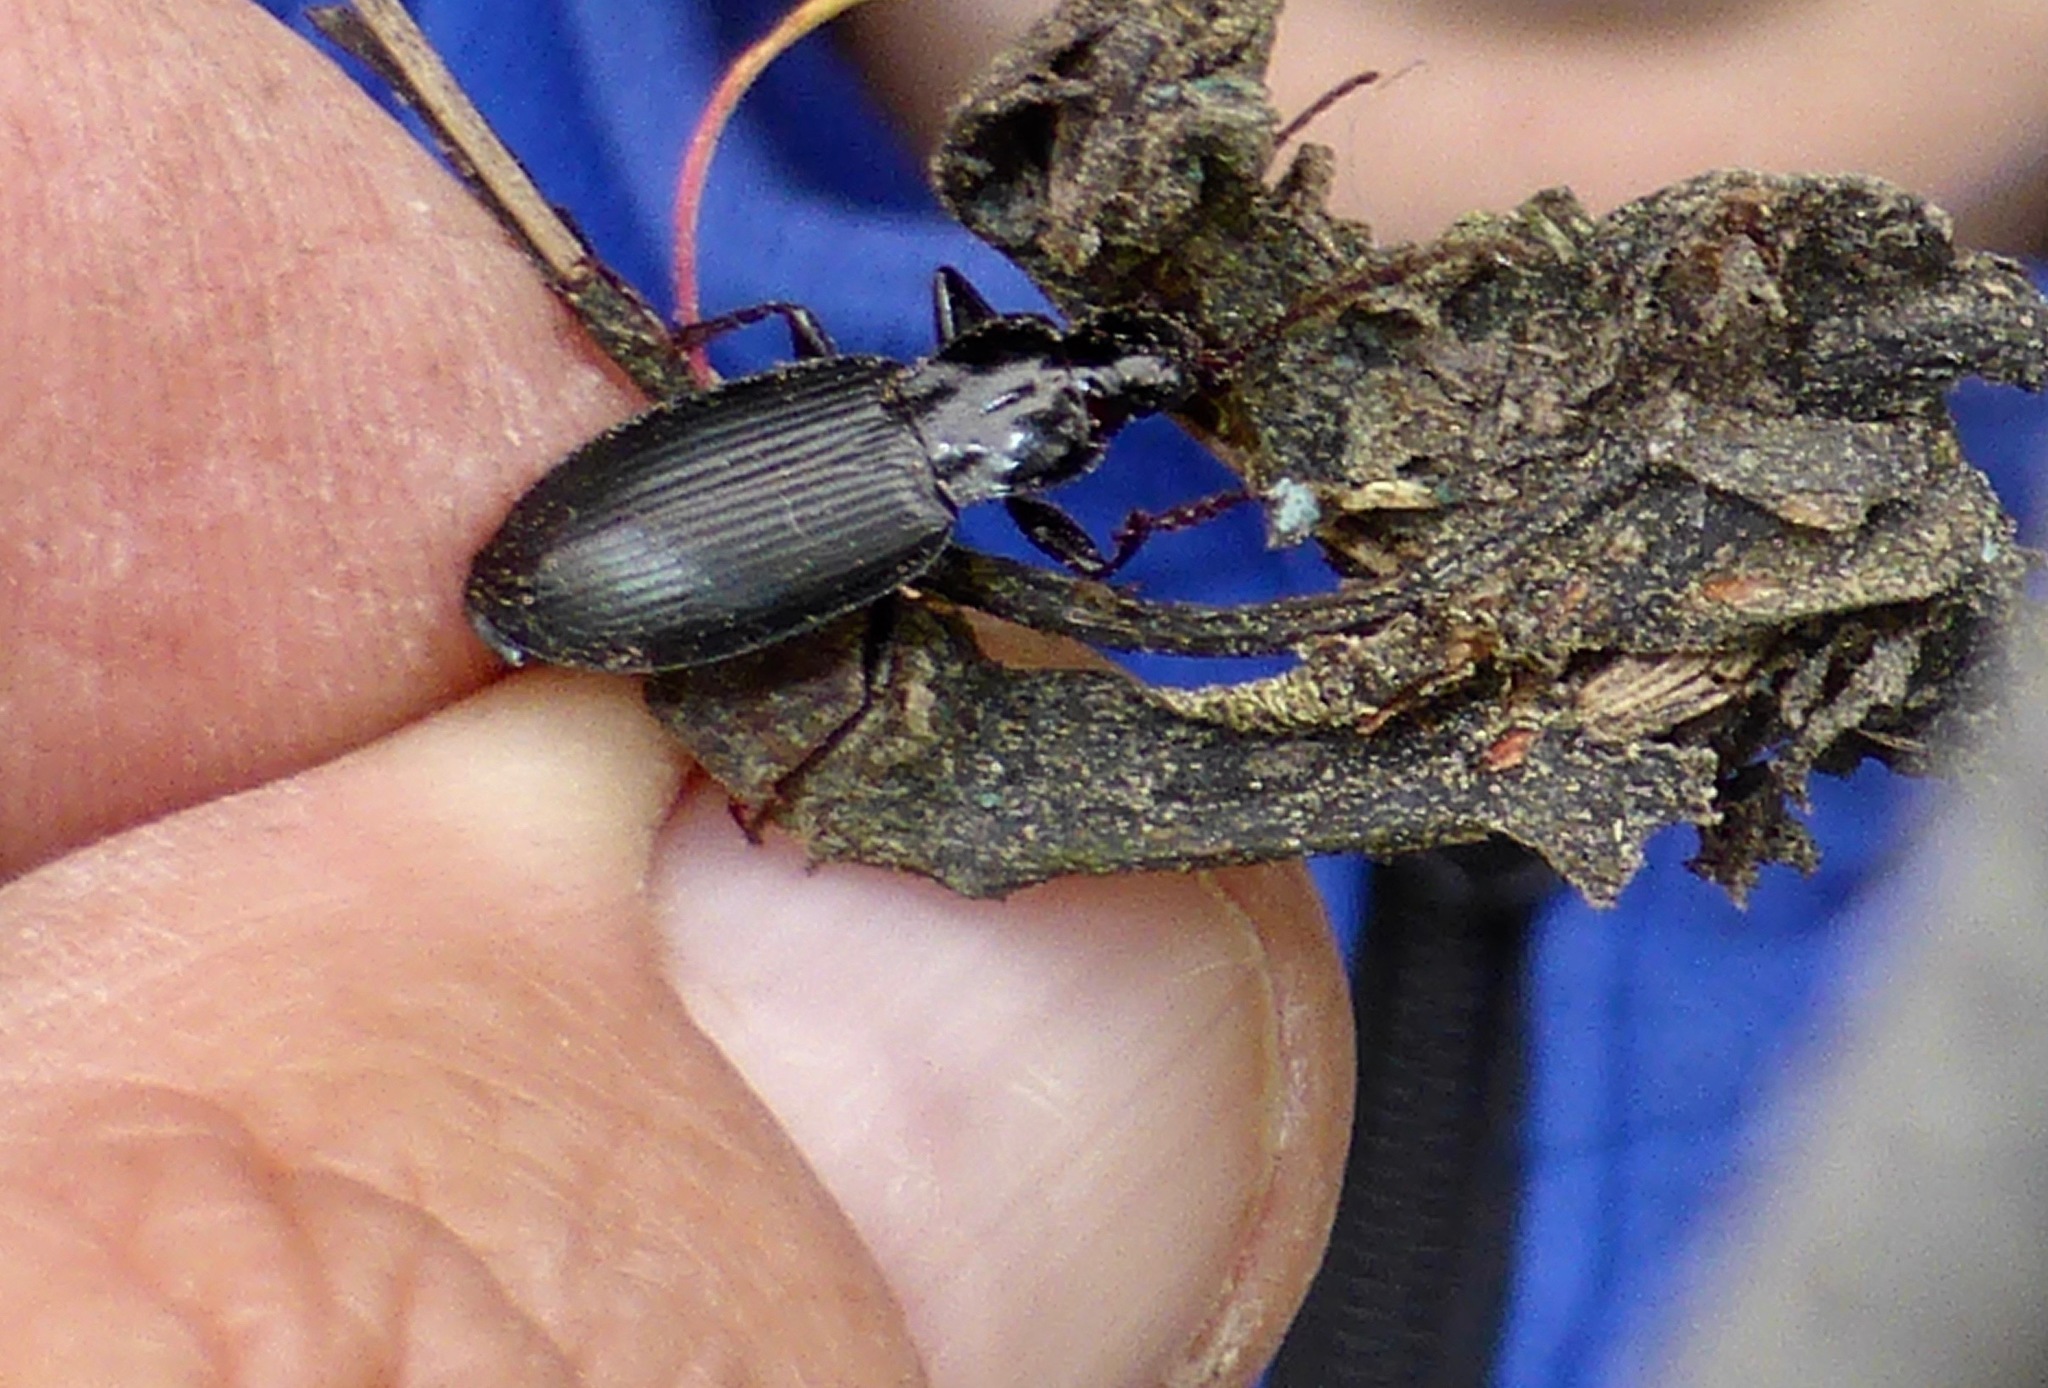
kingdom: Animalia
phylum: Arthropoda
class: Insecta
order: Coleoptera
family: Carabidae
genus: Laemostenus
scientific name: Laemostenus complanatus
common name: Cosmopolitan ground beetle
